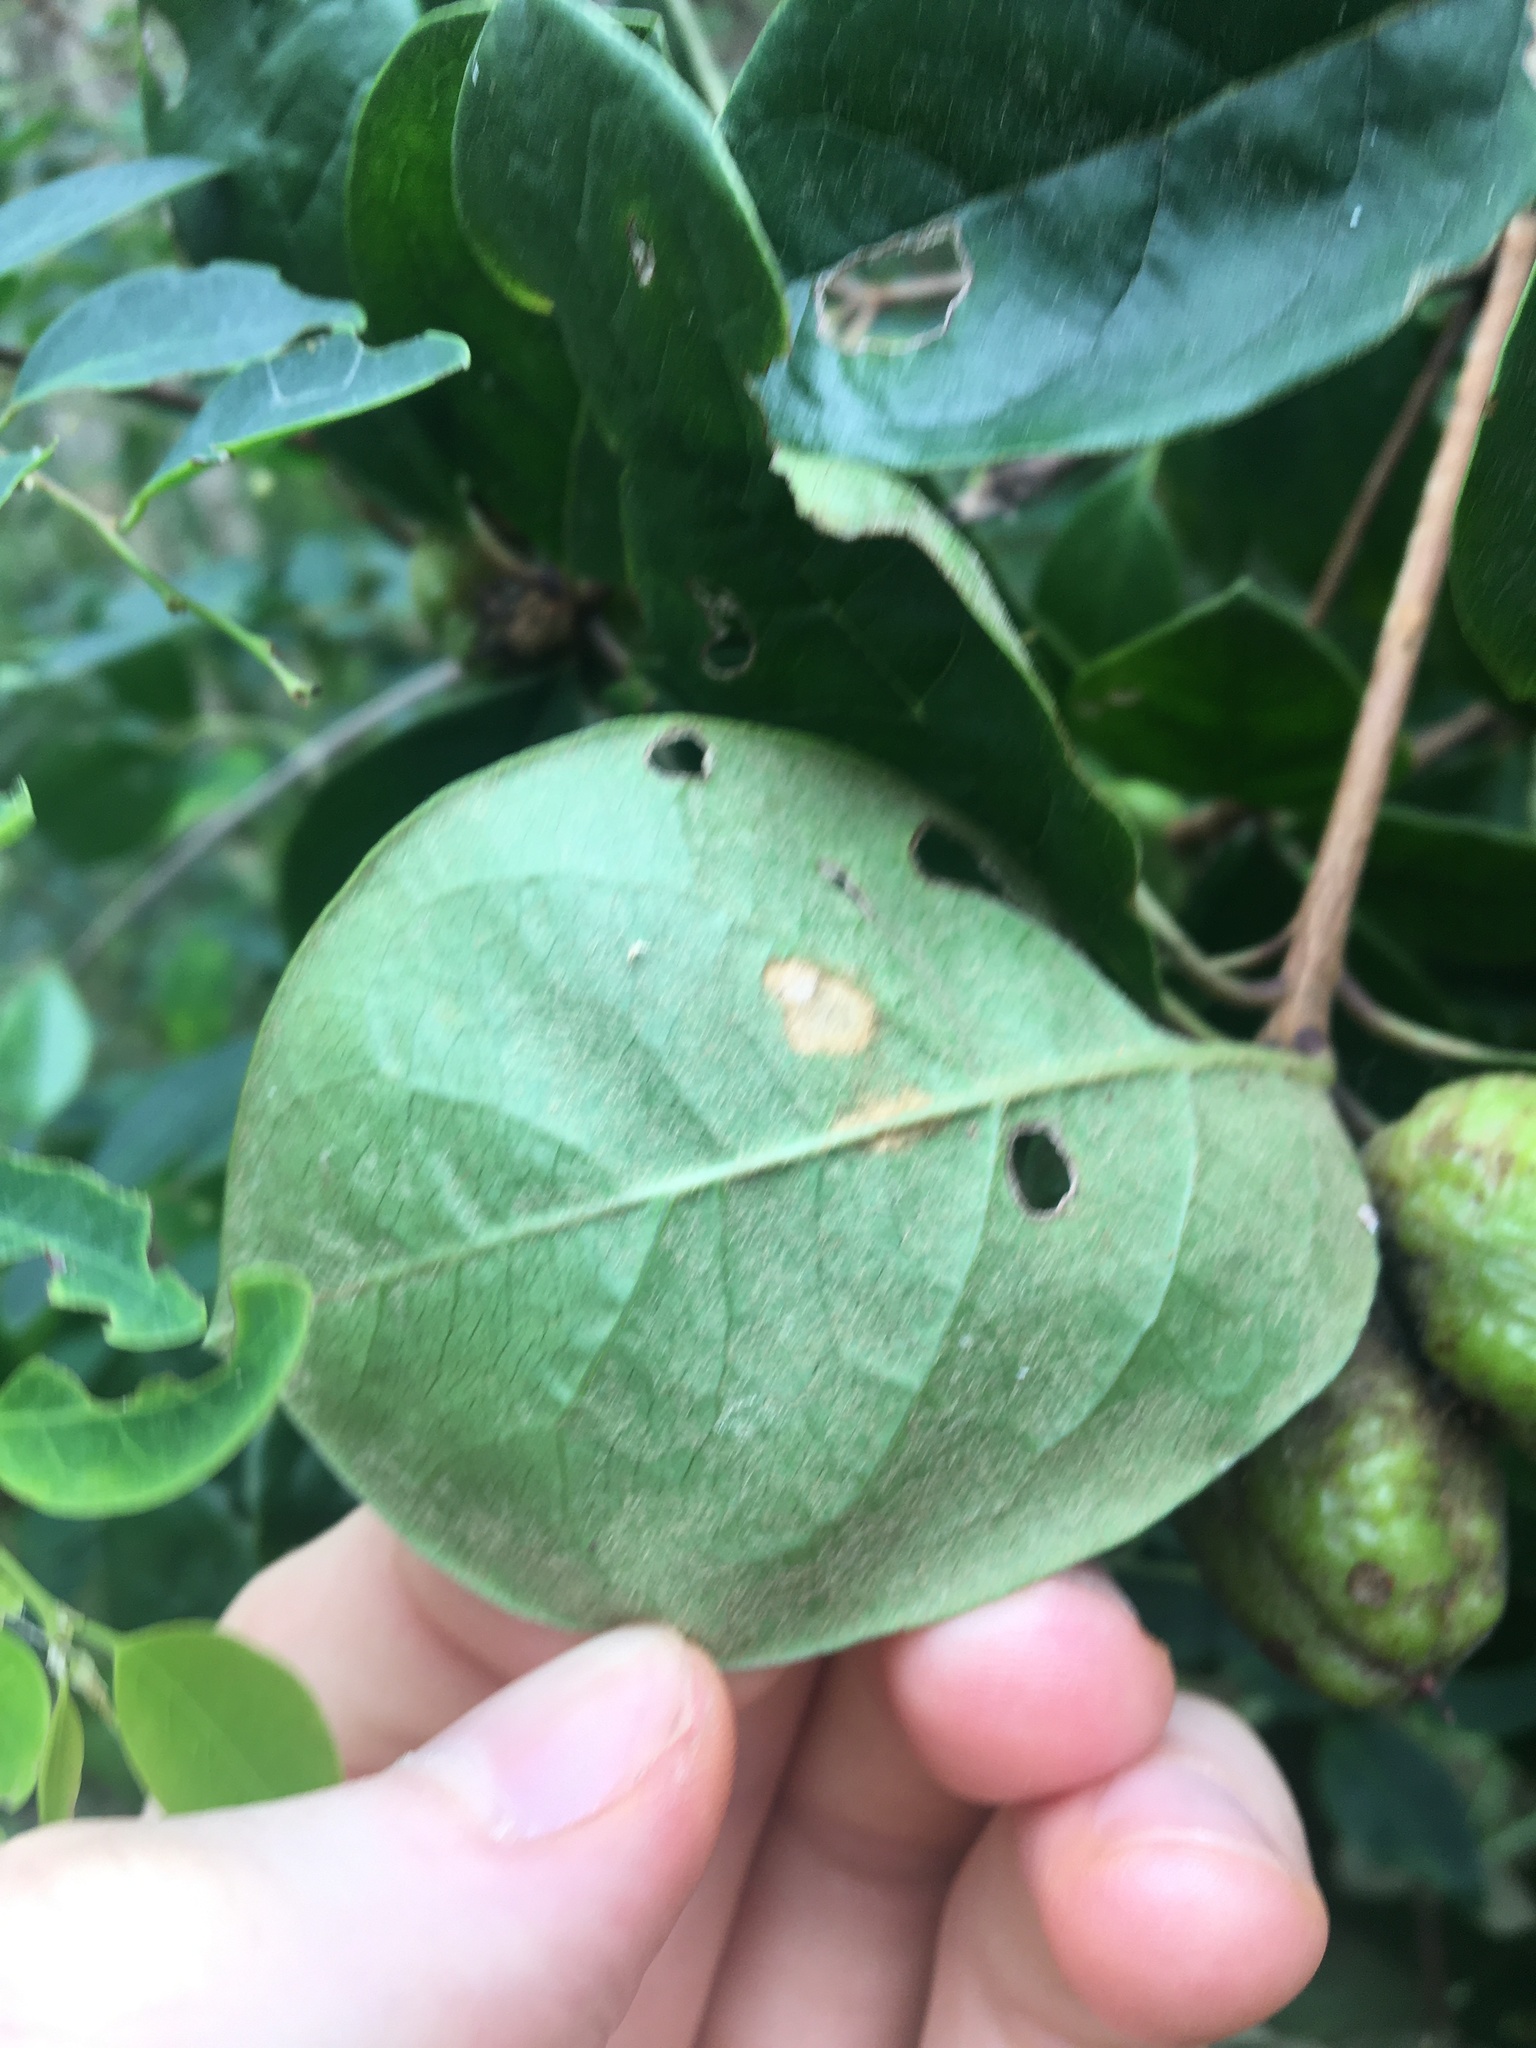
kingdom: Plantae
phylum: Tracheophyta
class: Magnoliopsida
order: Apiales
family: Pittosporaceae
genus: Pittosporum
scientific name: Pittosporum revolutum
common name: Brisbane-laurel
